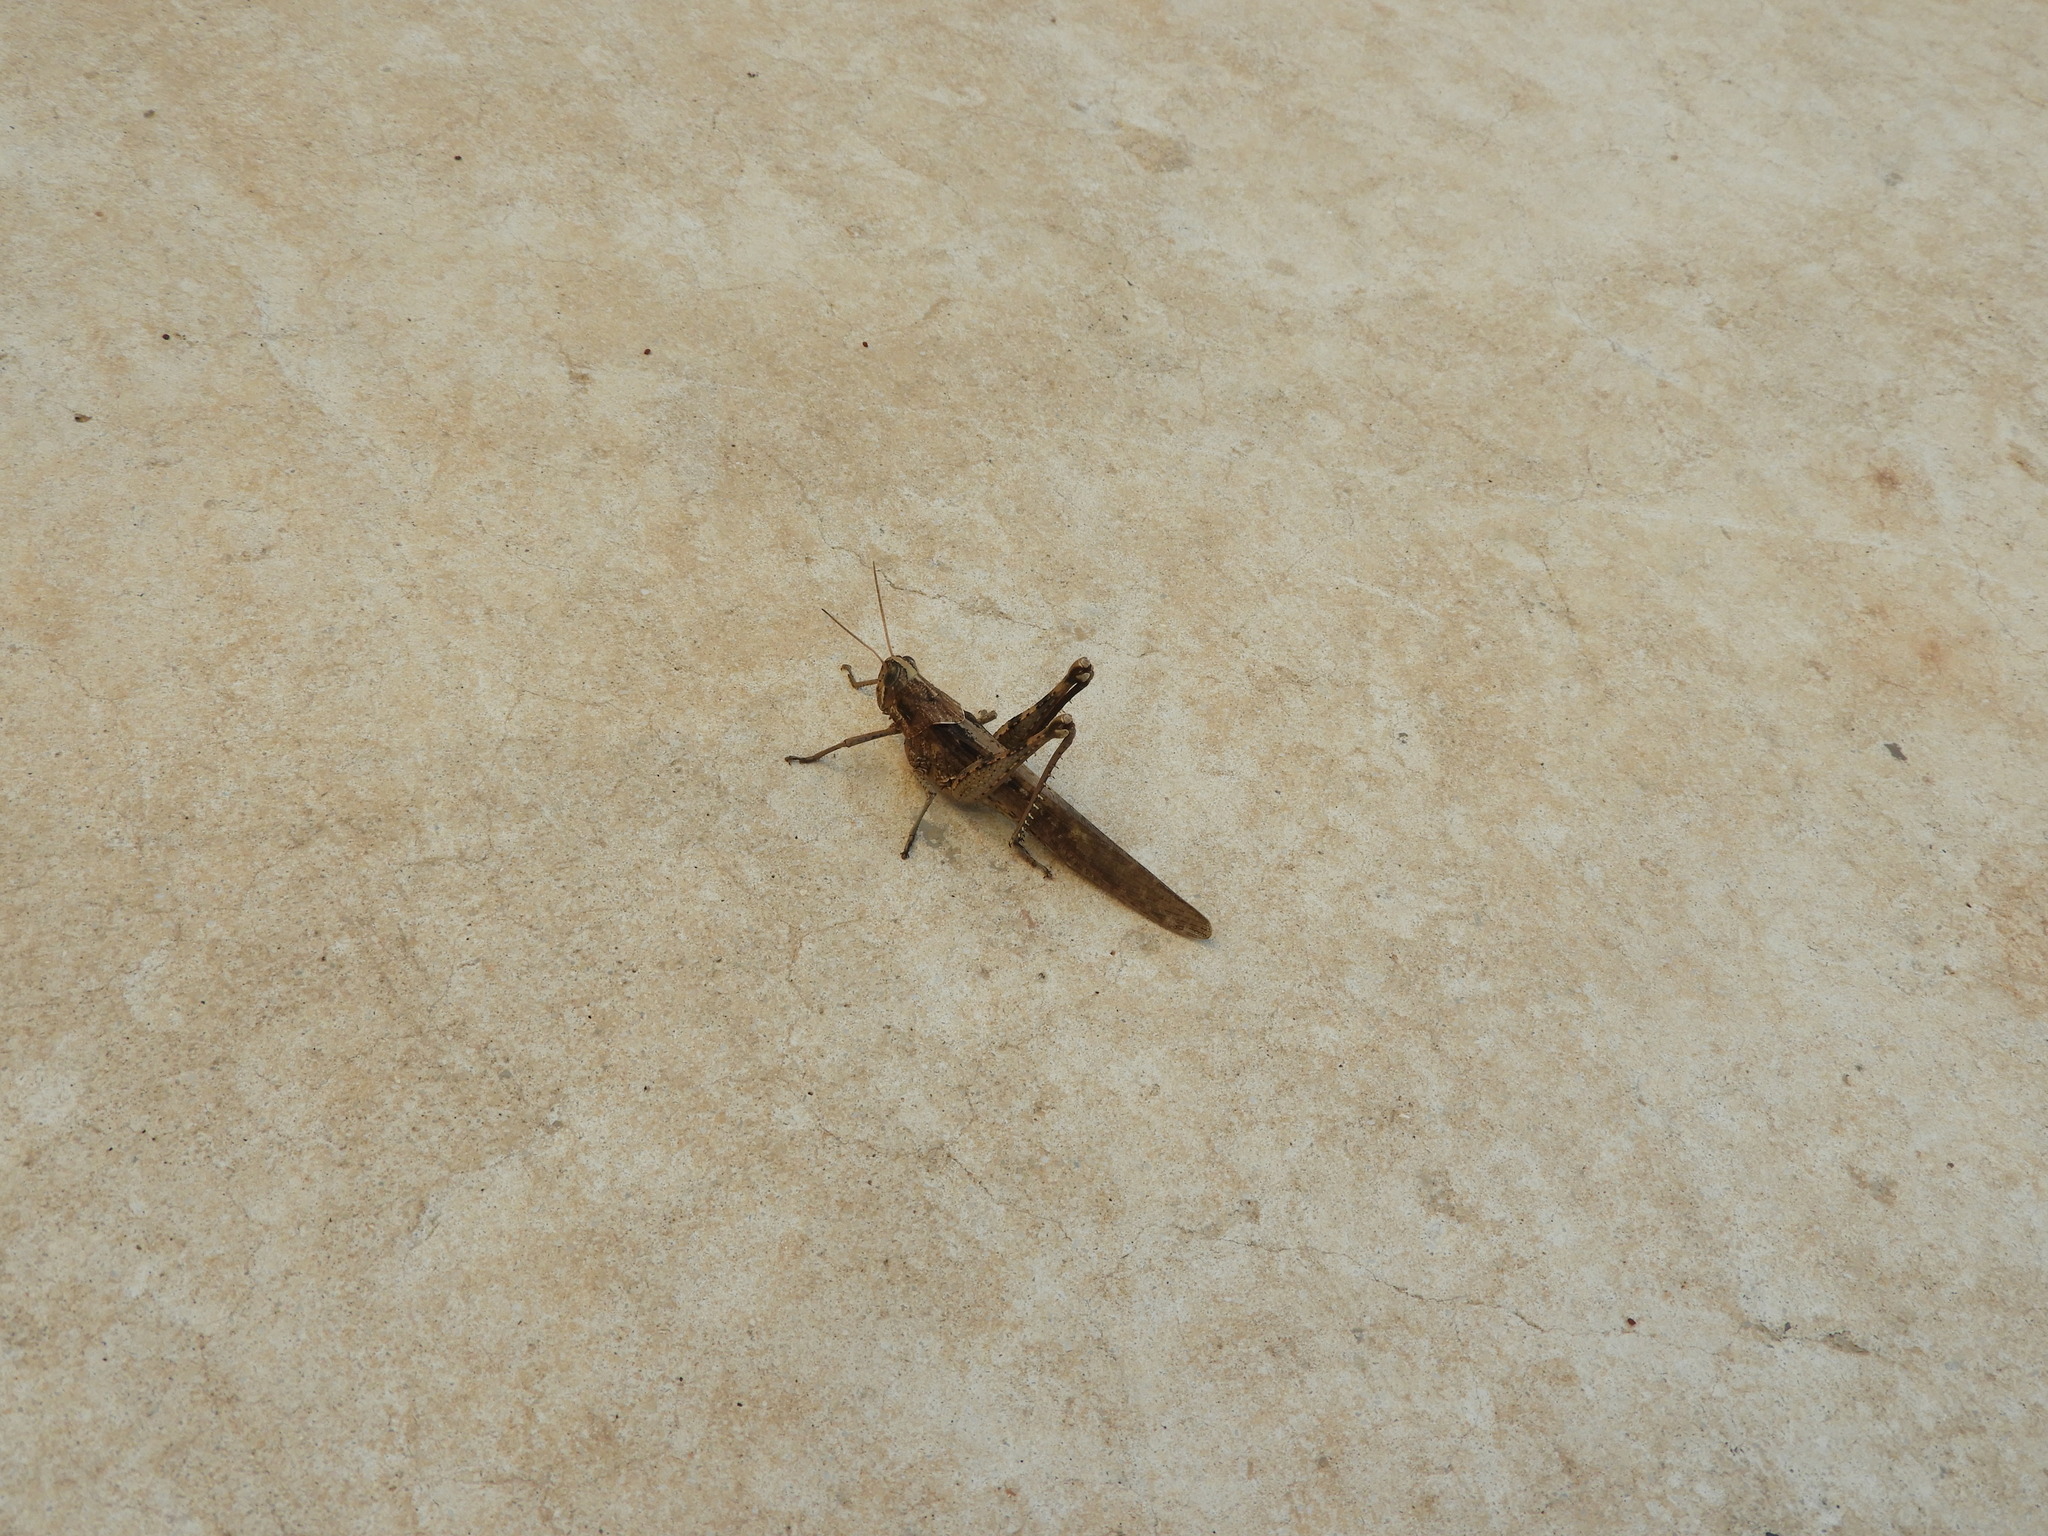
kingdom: Animalia
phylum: Arthropoda
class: Insecta
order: Orthoptera
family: Acrididae
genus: Schistocerca
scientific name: Schistocerca nitens
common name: Vagrant grasshopper
